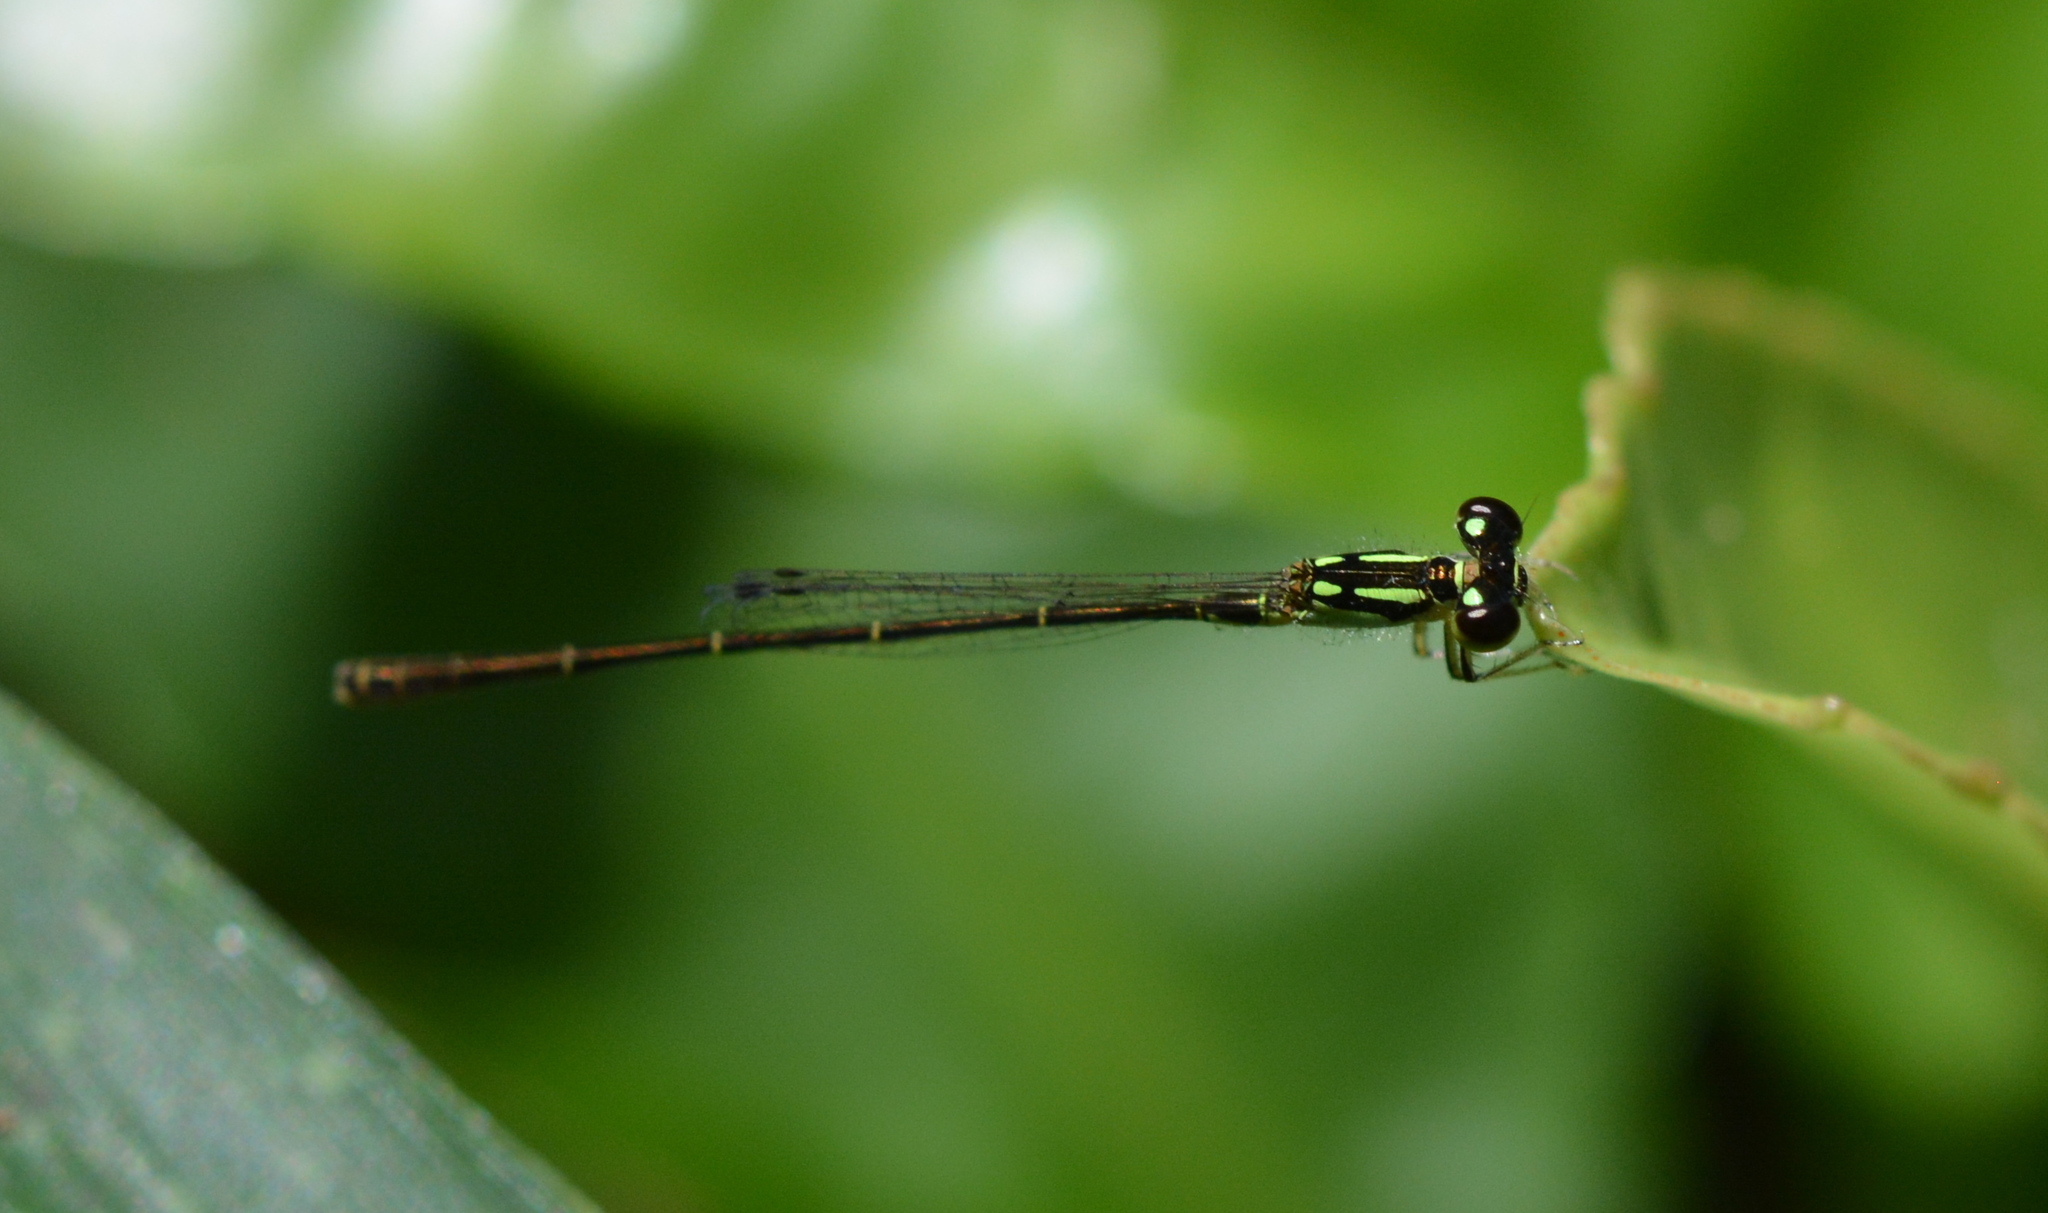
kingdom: Animalia
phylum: Arthropoda
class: Insecta
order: Odonata
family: Coenagrionidae
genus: Ischnura
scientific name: Ischnura posita
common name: Fragile forktail
